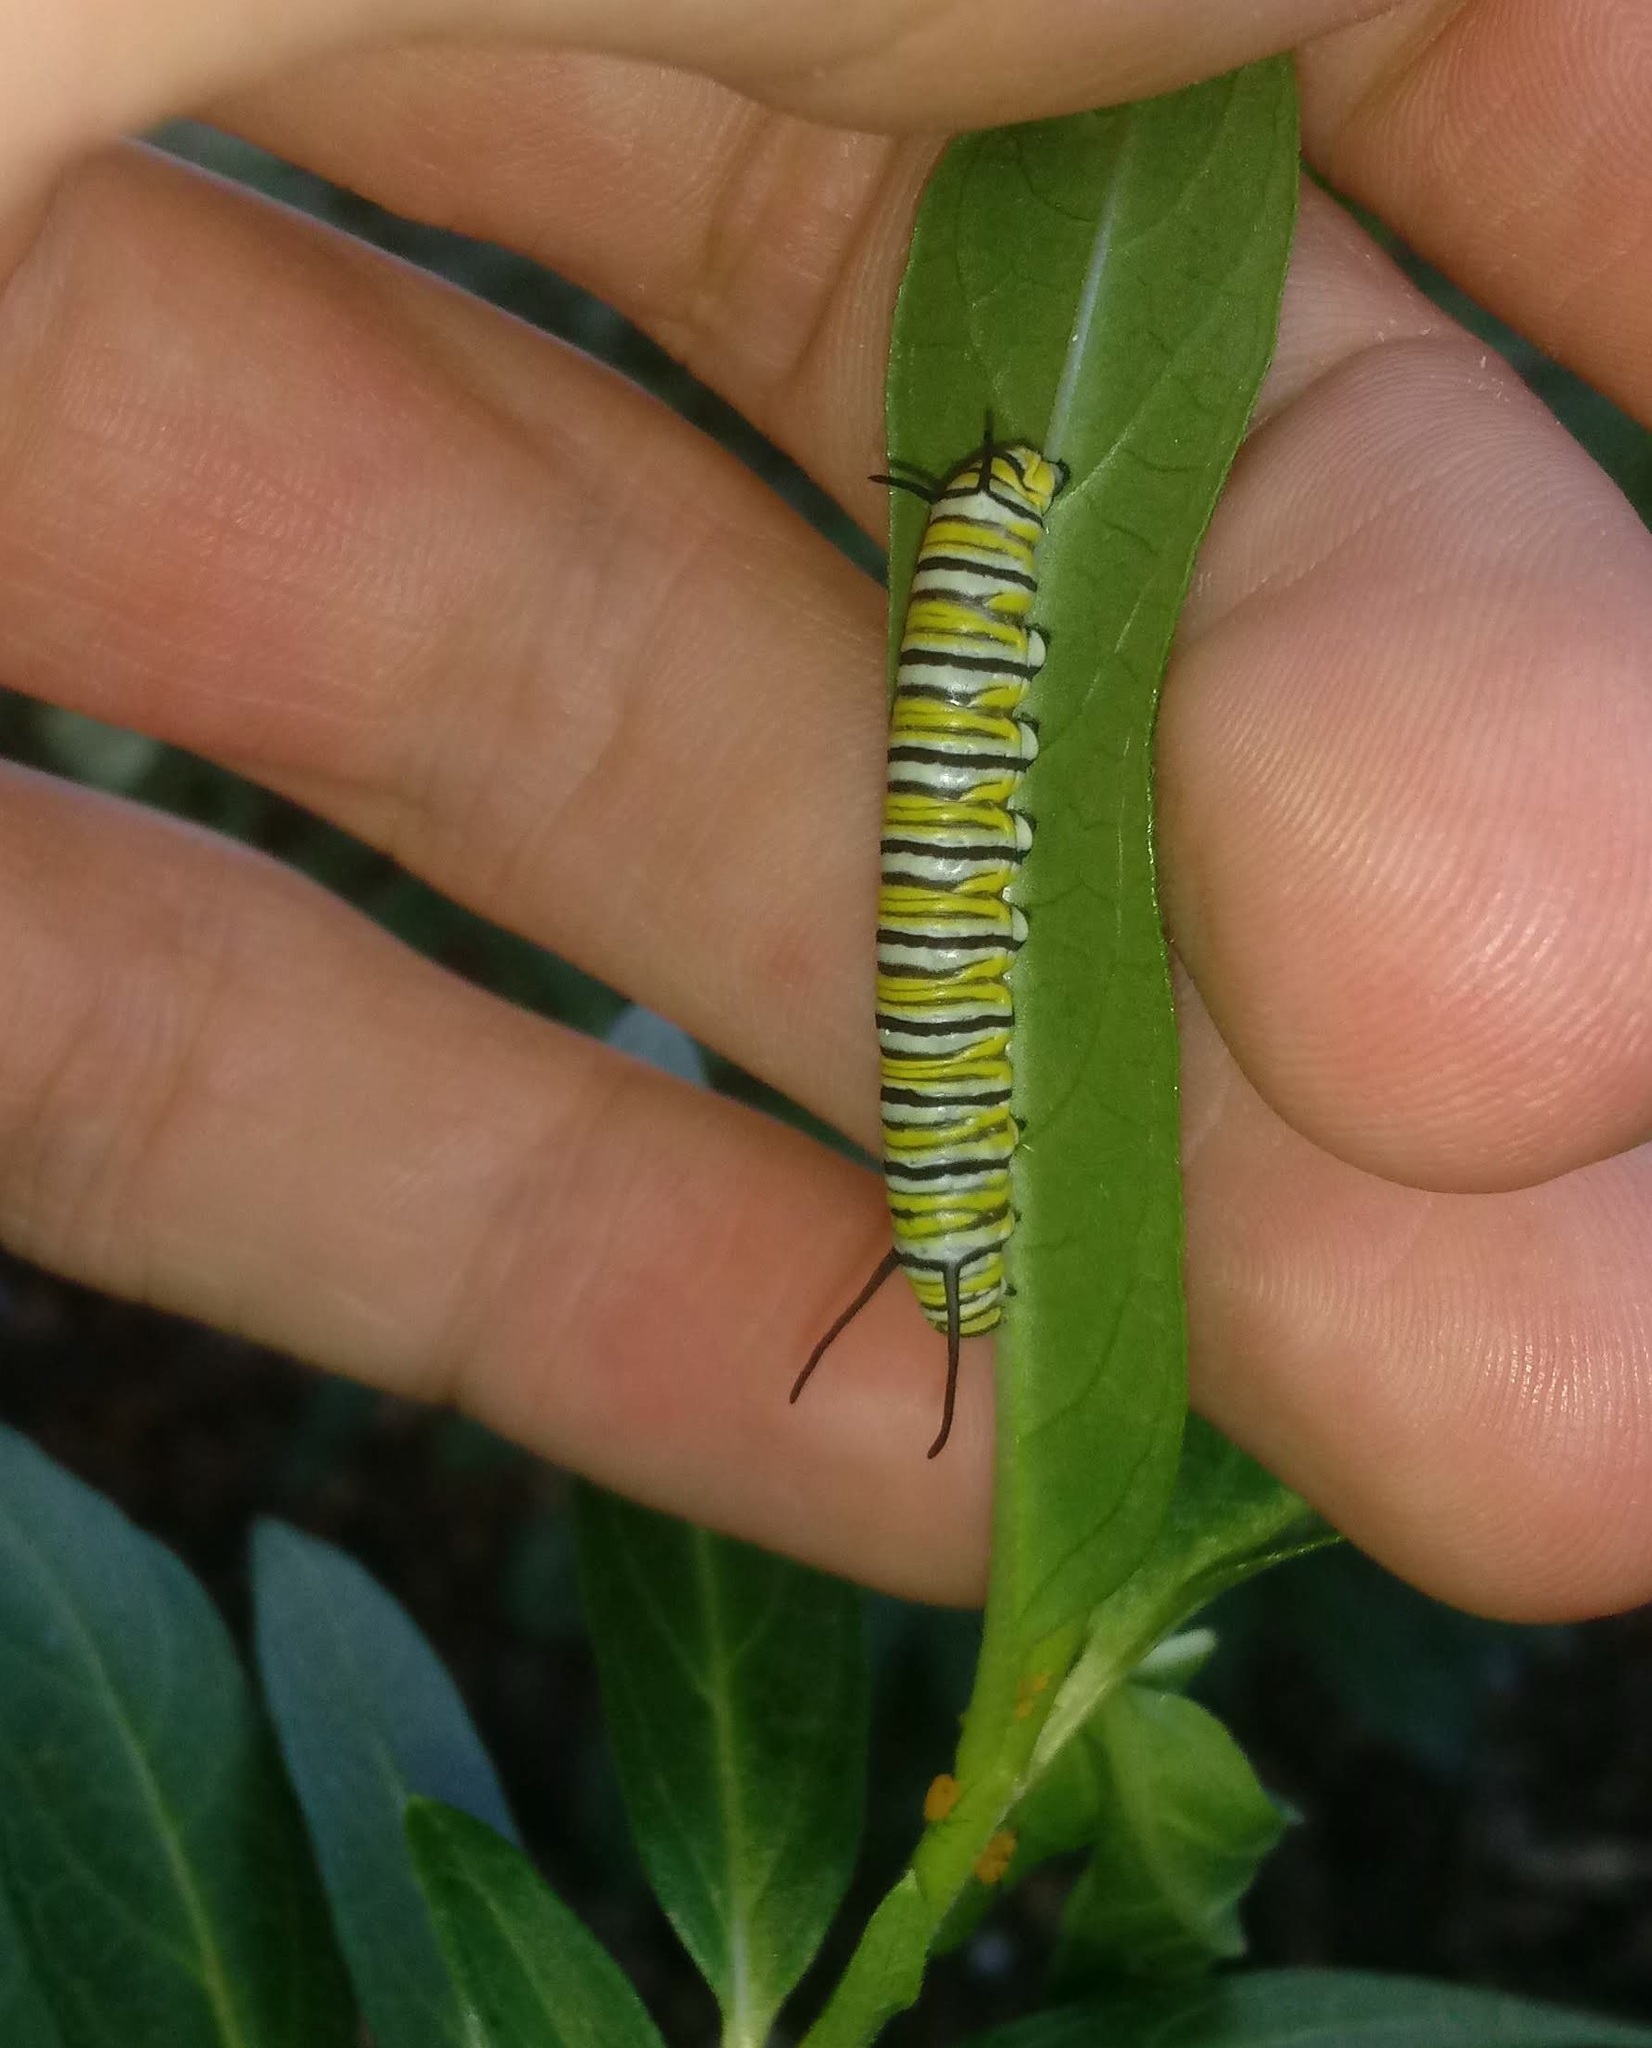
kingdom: Animalia
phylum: Arthropoda
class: Insecta
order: Lepidoptera
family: Nymphalidae
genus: Danaus
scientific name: Danaus plexippus
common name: Monarch
